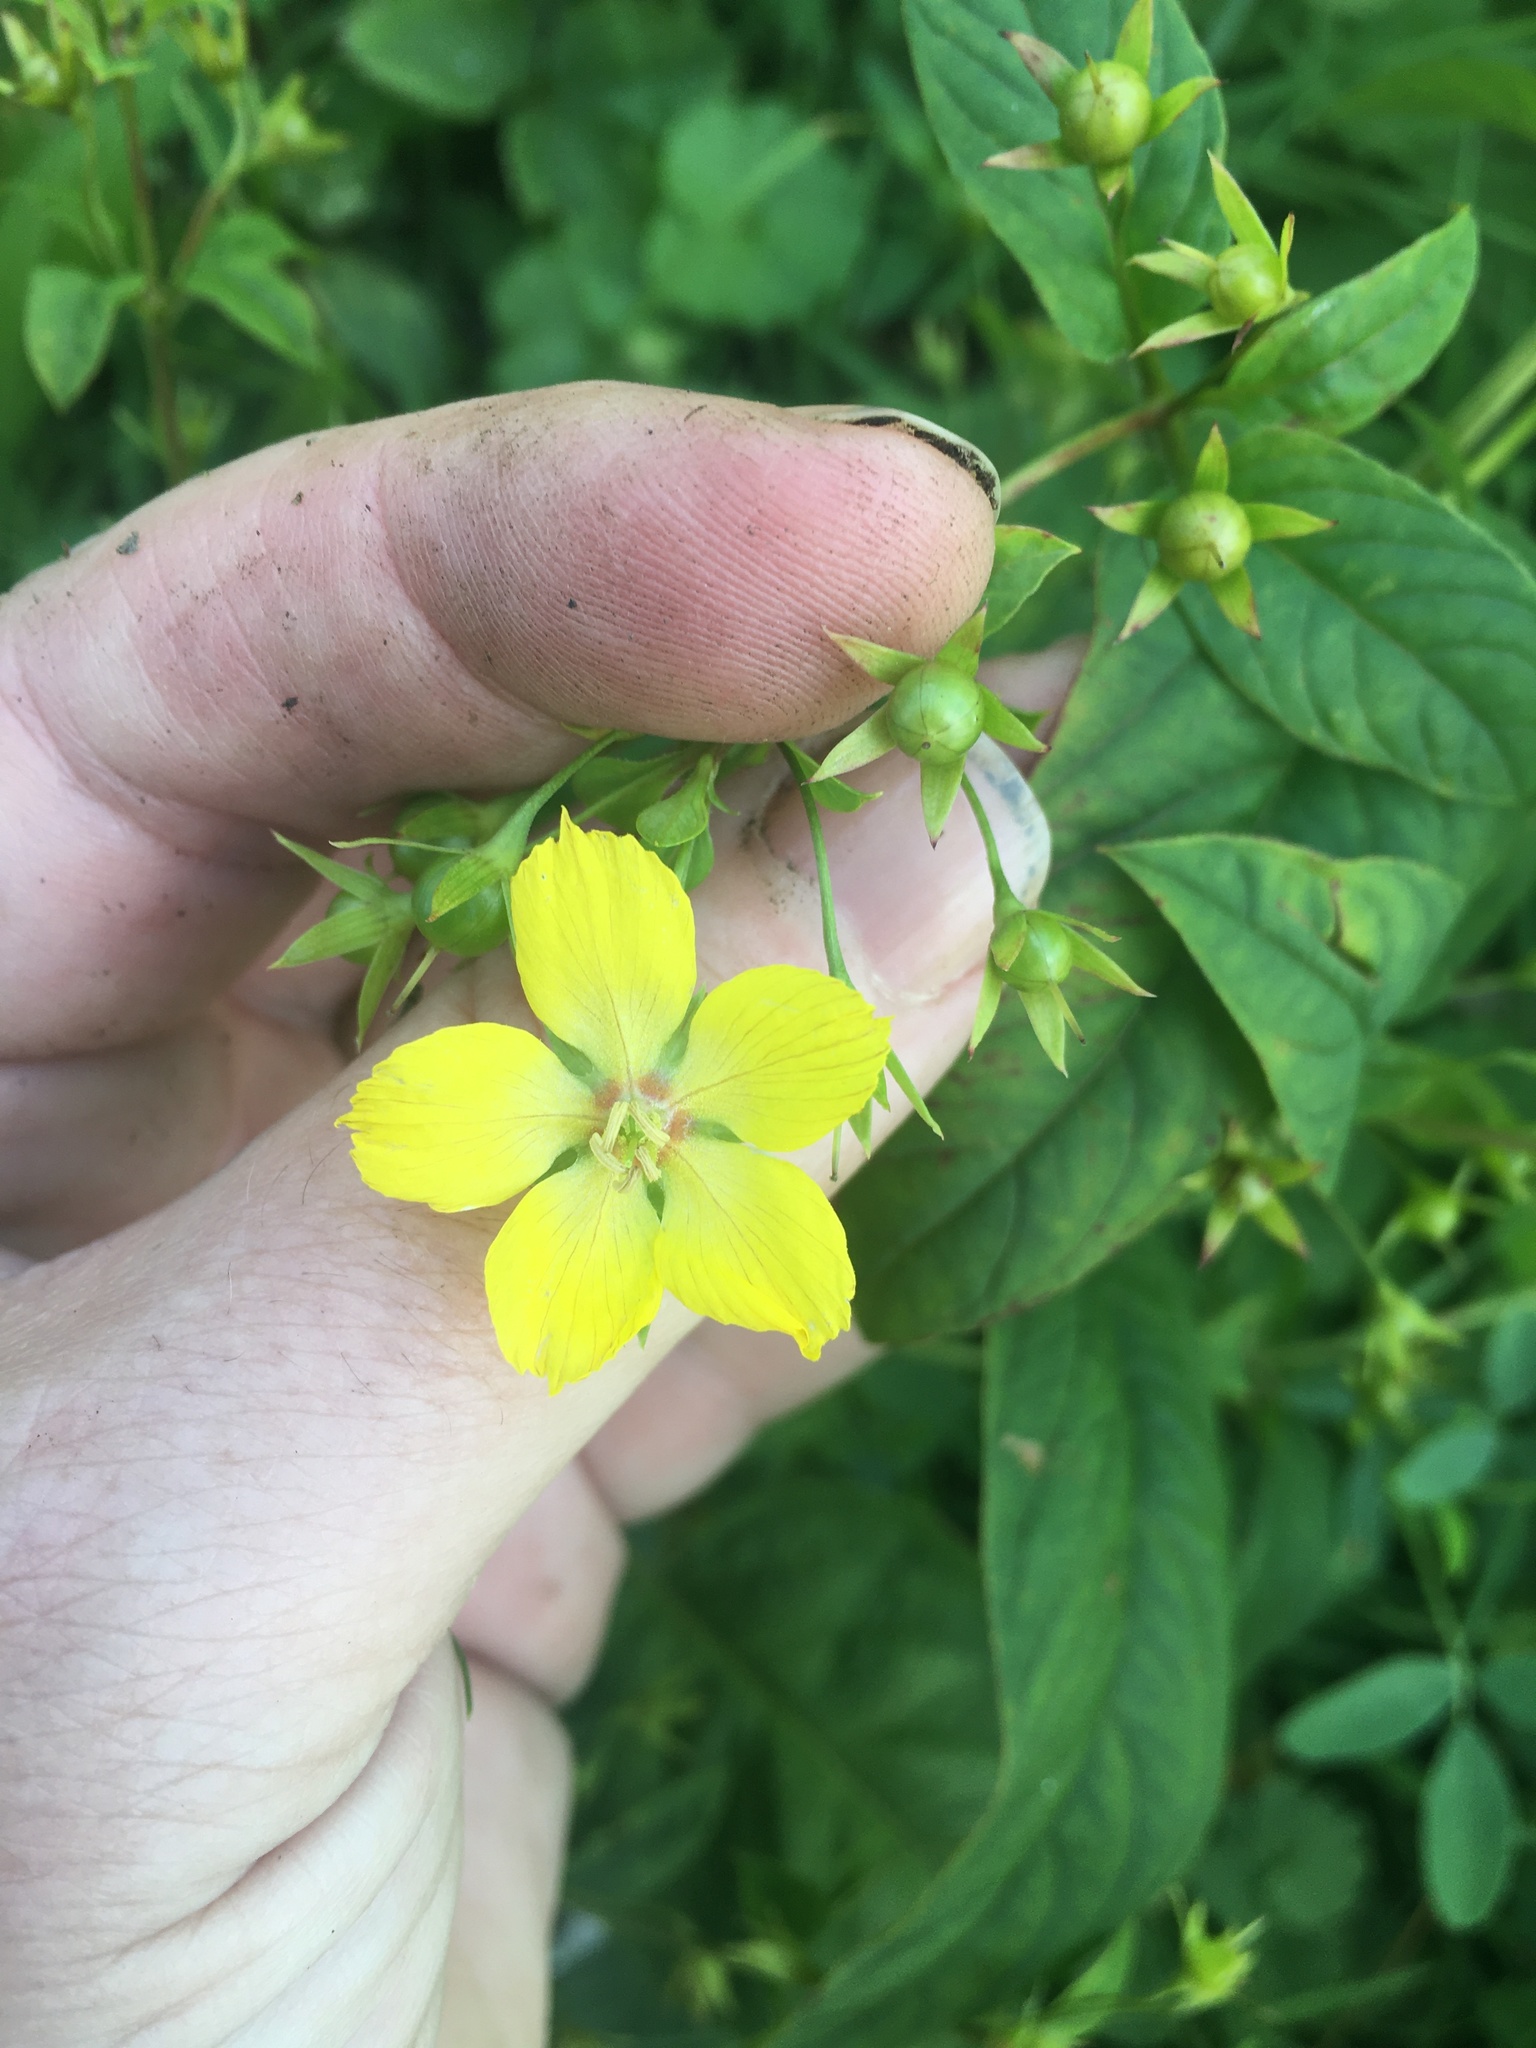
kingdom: Plantae
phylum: Tracheophyta
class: Magnoliopsida
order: Ericales
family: Primulaceae
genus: Lysimachia
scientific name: Lysimachia ciliata
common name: Fringed loosestrife
